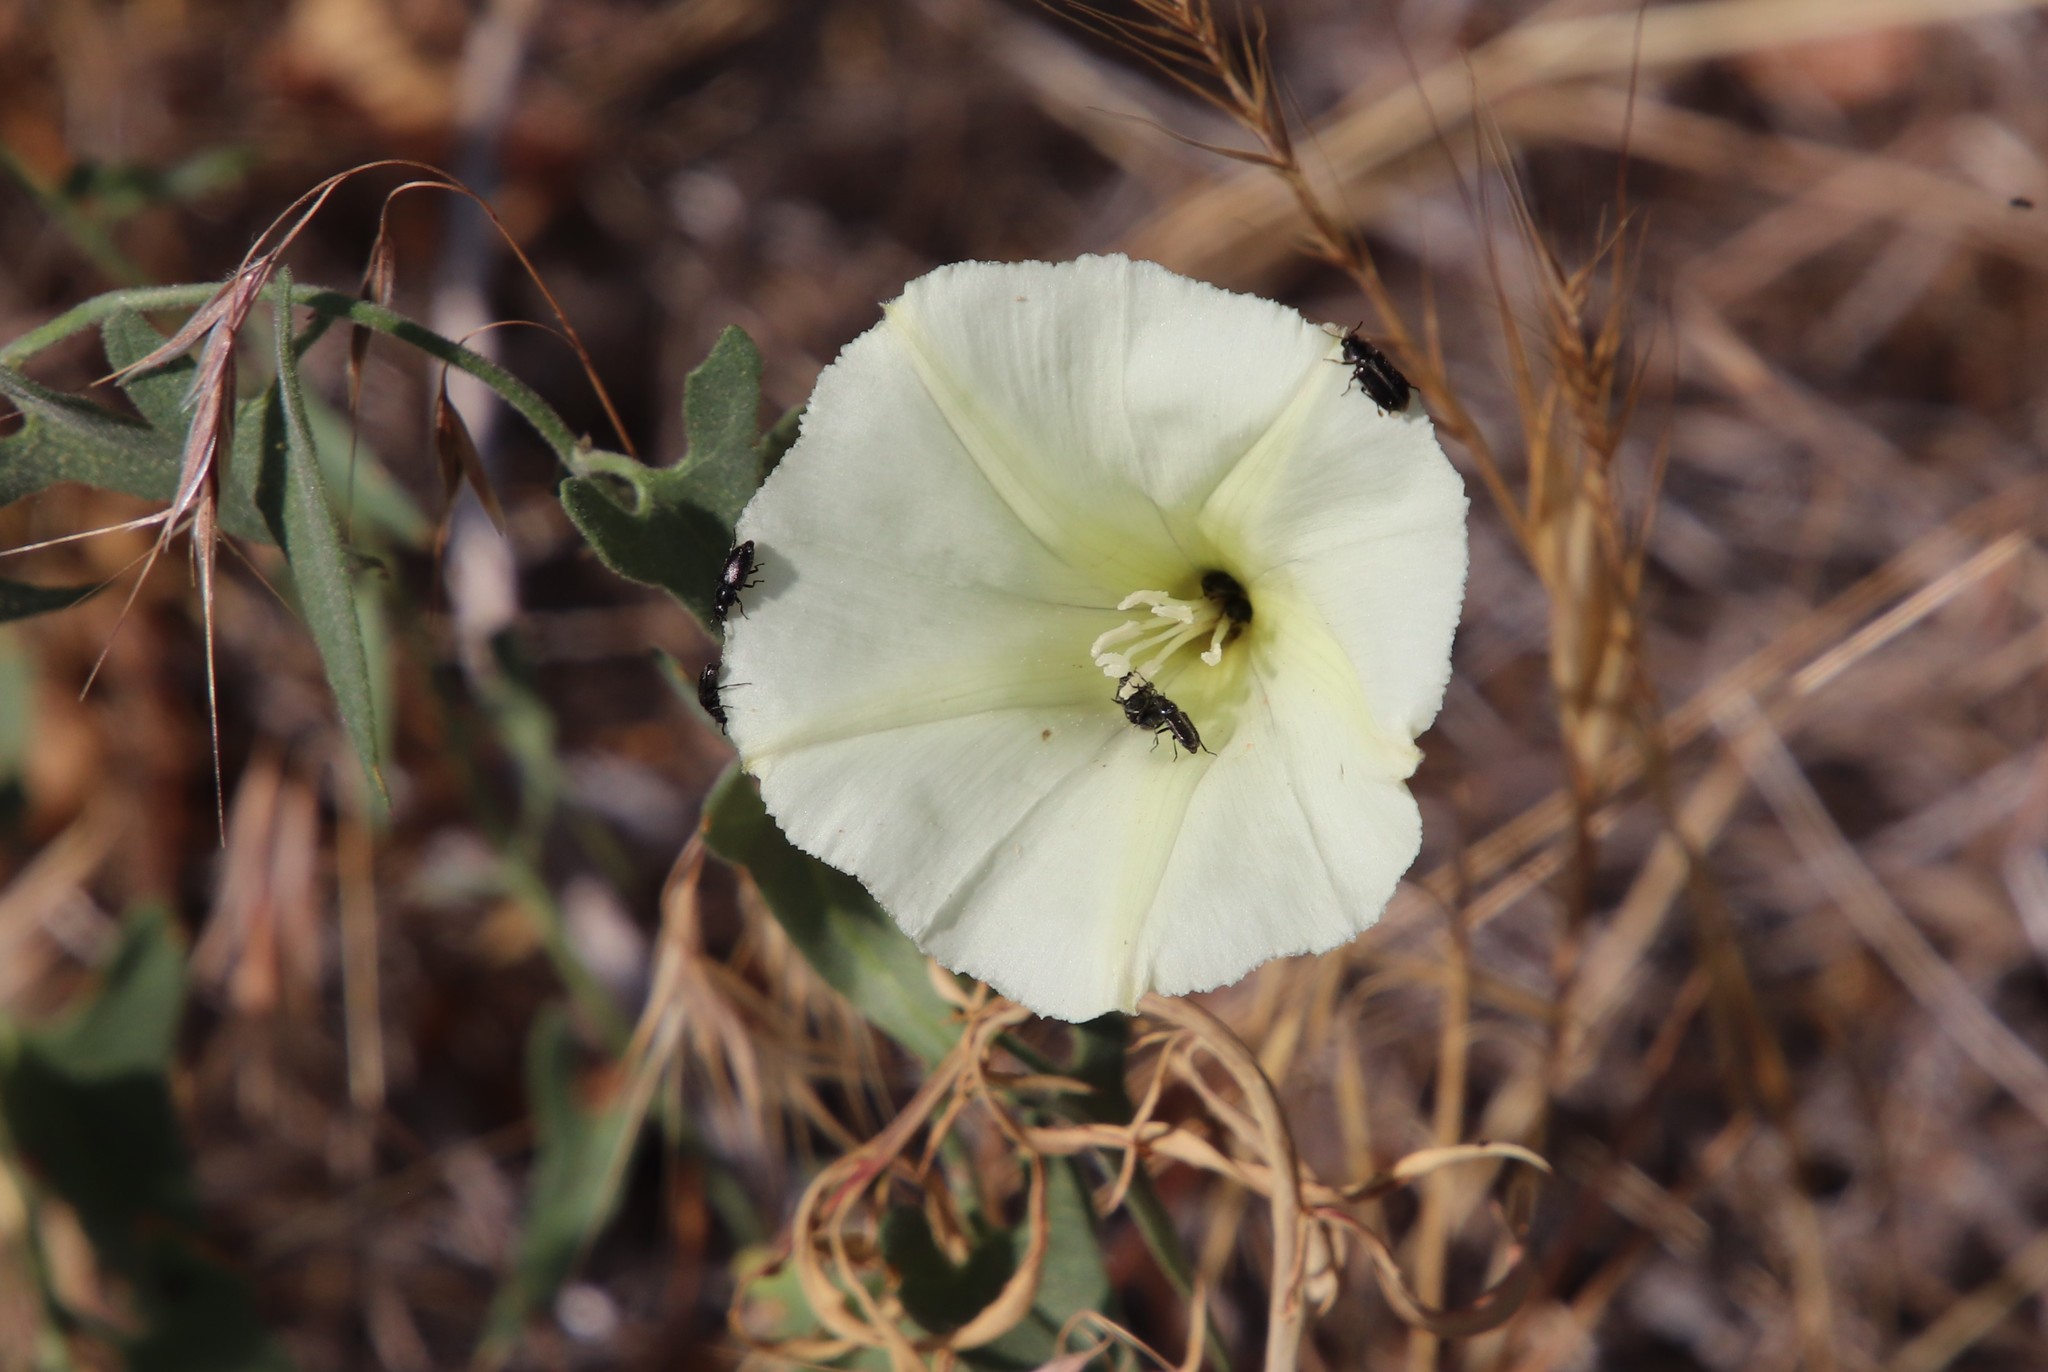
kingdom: Plantae
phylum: Tracheophyta
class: Magnoliopsida
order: Solanales
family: Convolvulaceae
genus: Calystegia
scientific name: Calystegia occidentalis
